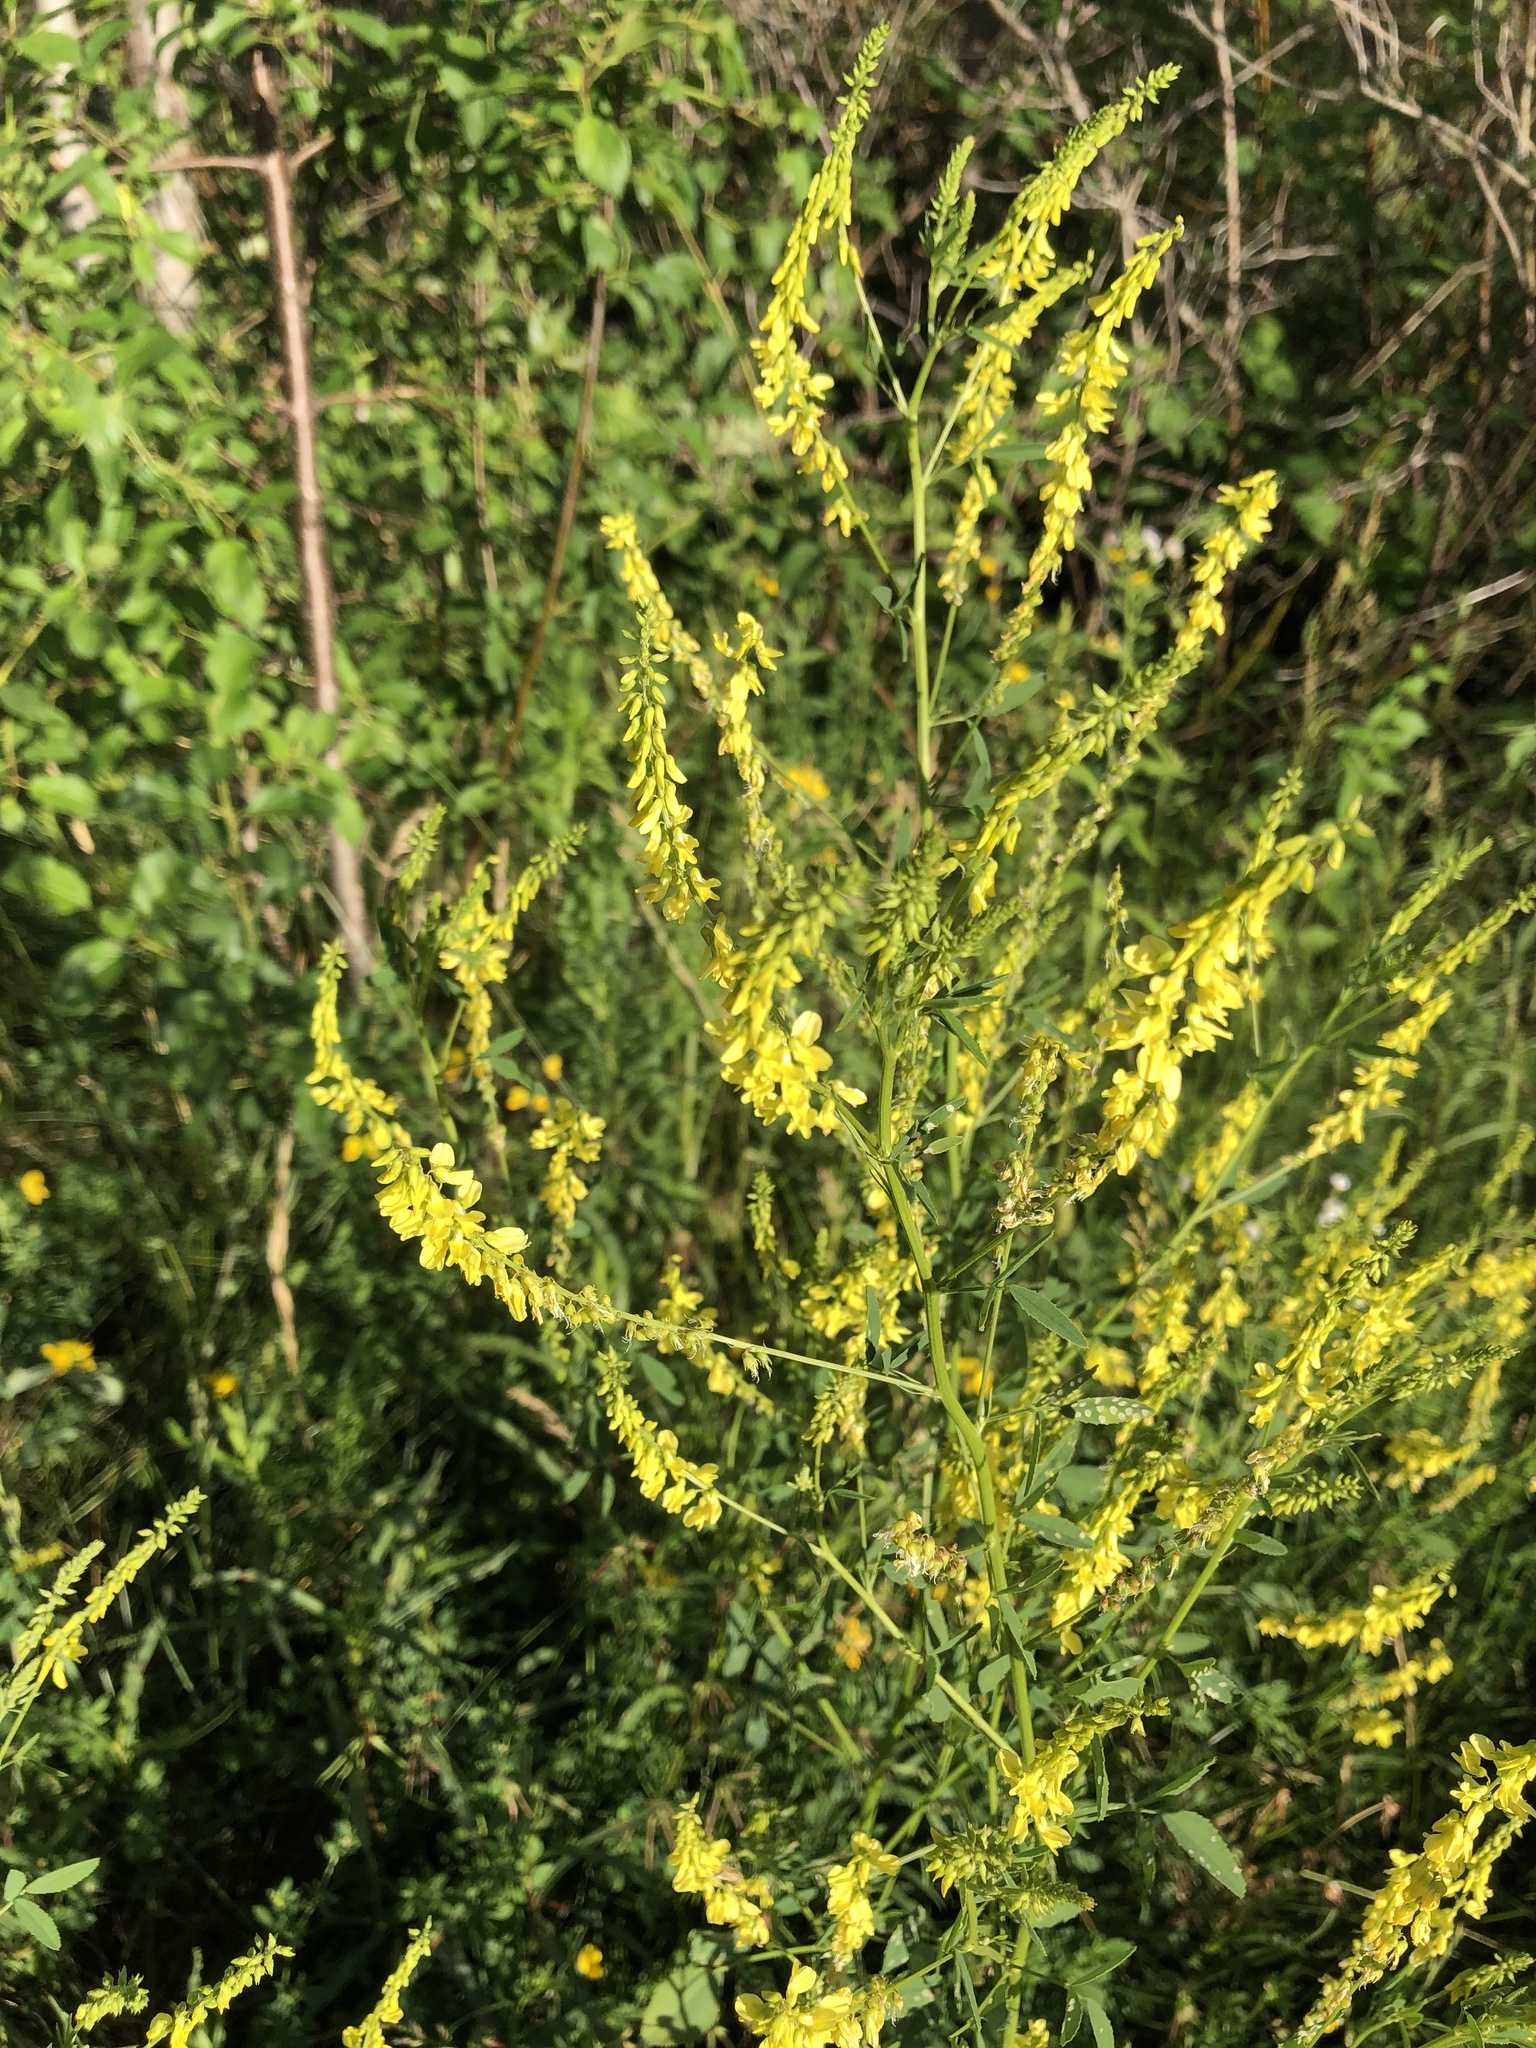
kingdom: Plantae
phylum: Tracheophyta
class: Magnoliopsida
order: Fabales
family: Fabaceae
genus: Melilotus
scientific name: Melilotus officinalis
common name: Sweetclover
